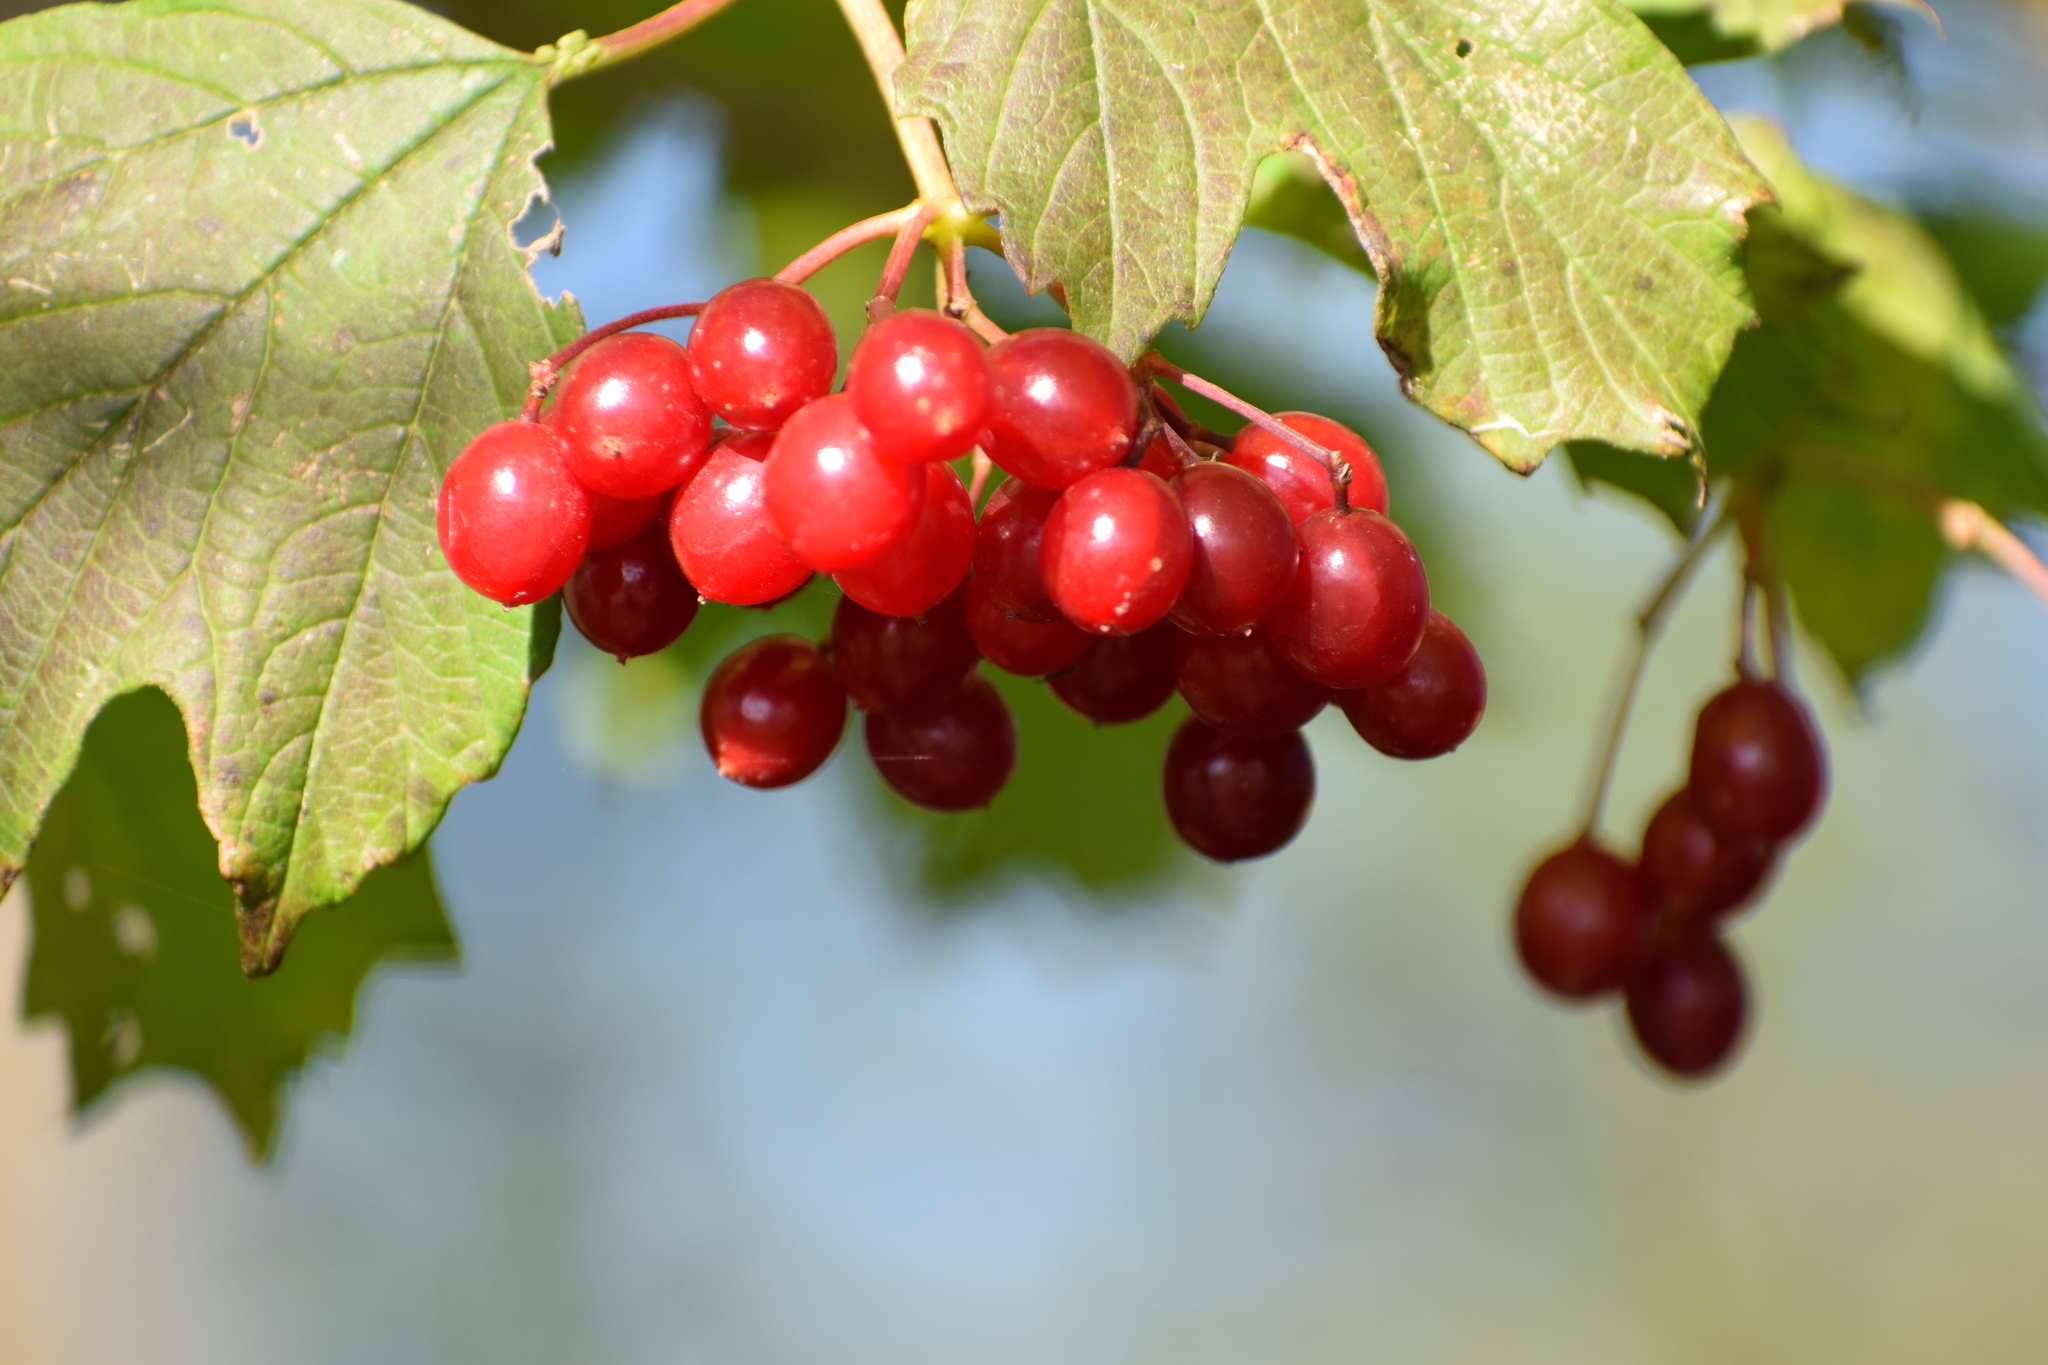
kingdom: Plantae
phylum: Tracheophyta
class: Magnoliopsida
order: Dipsacales
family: Viburnaceae
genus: Viburnum
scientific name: Viburnum opulus
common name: Guelder-rose
